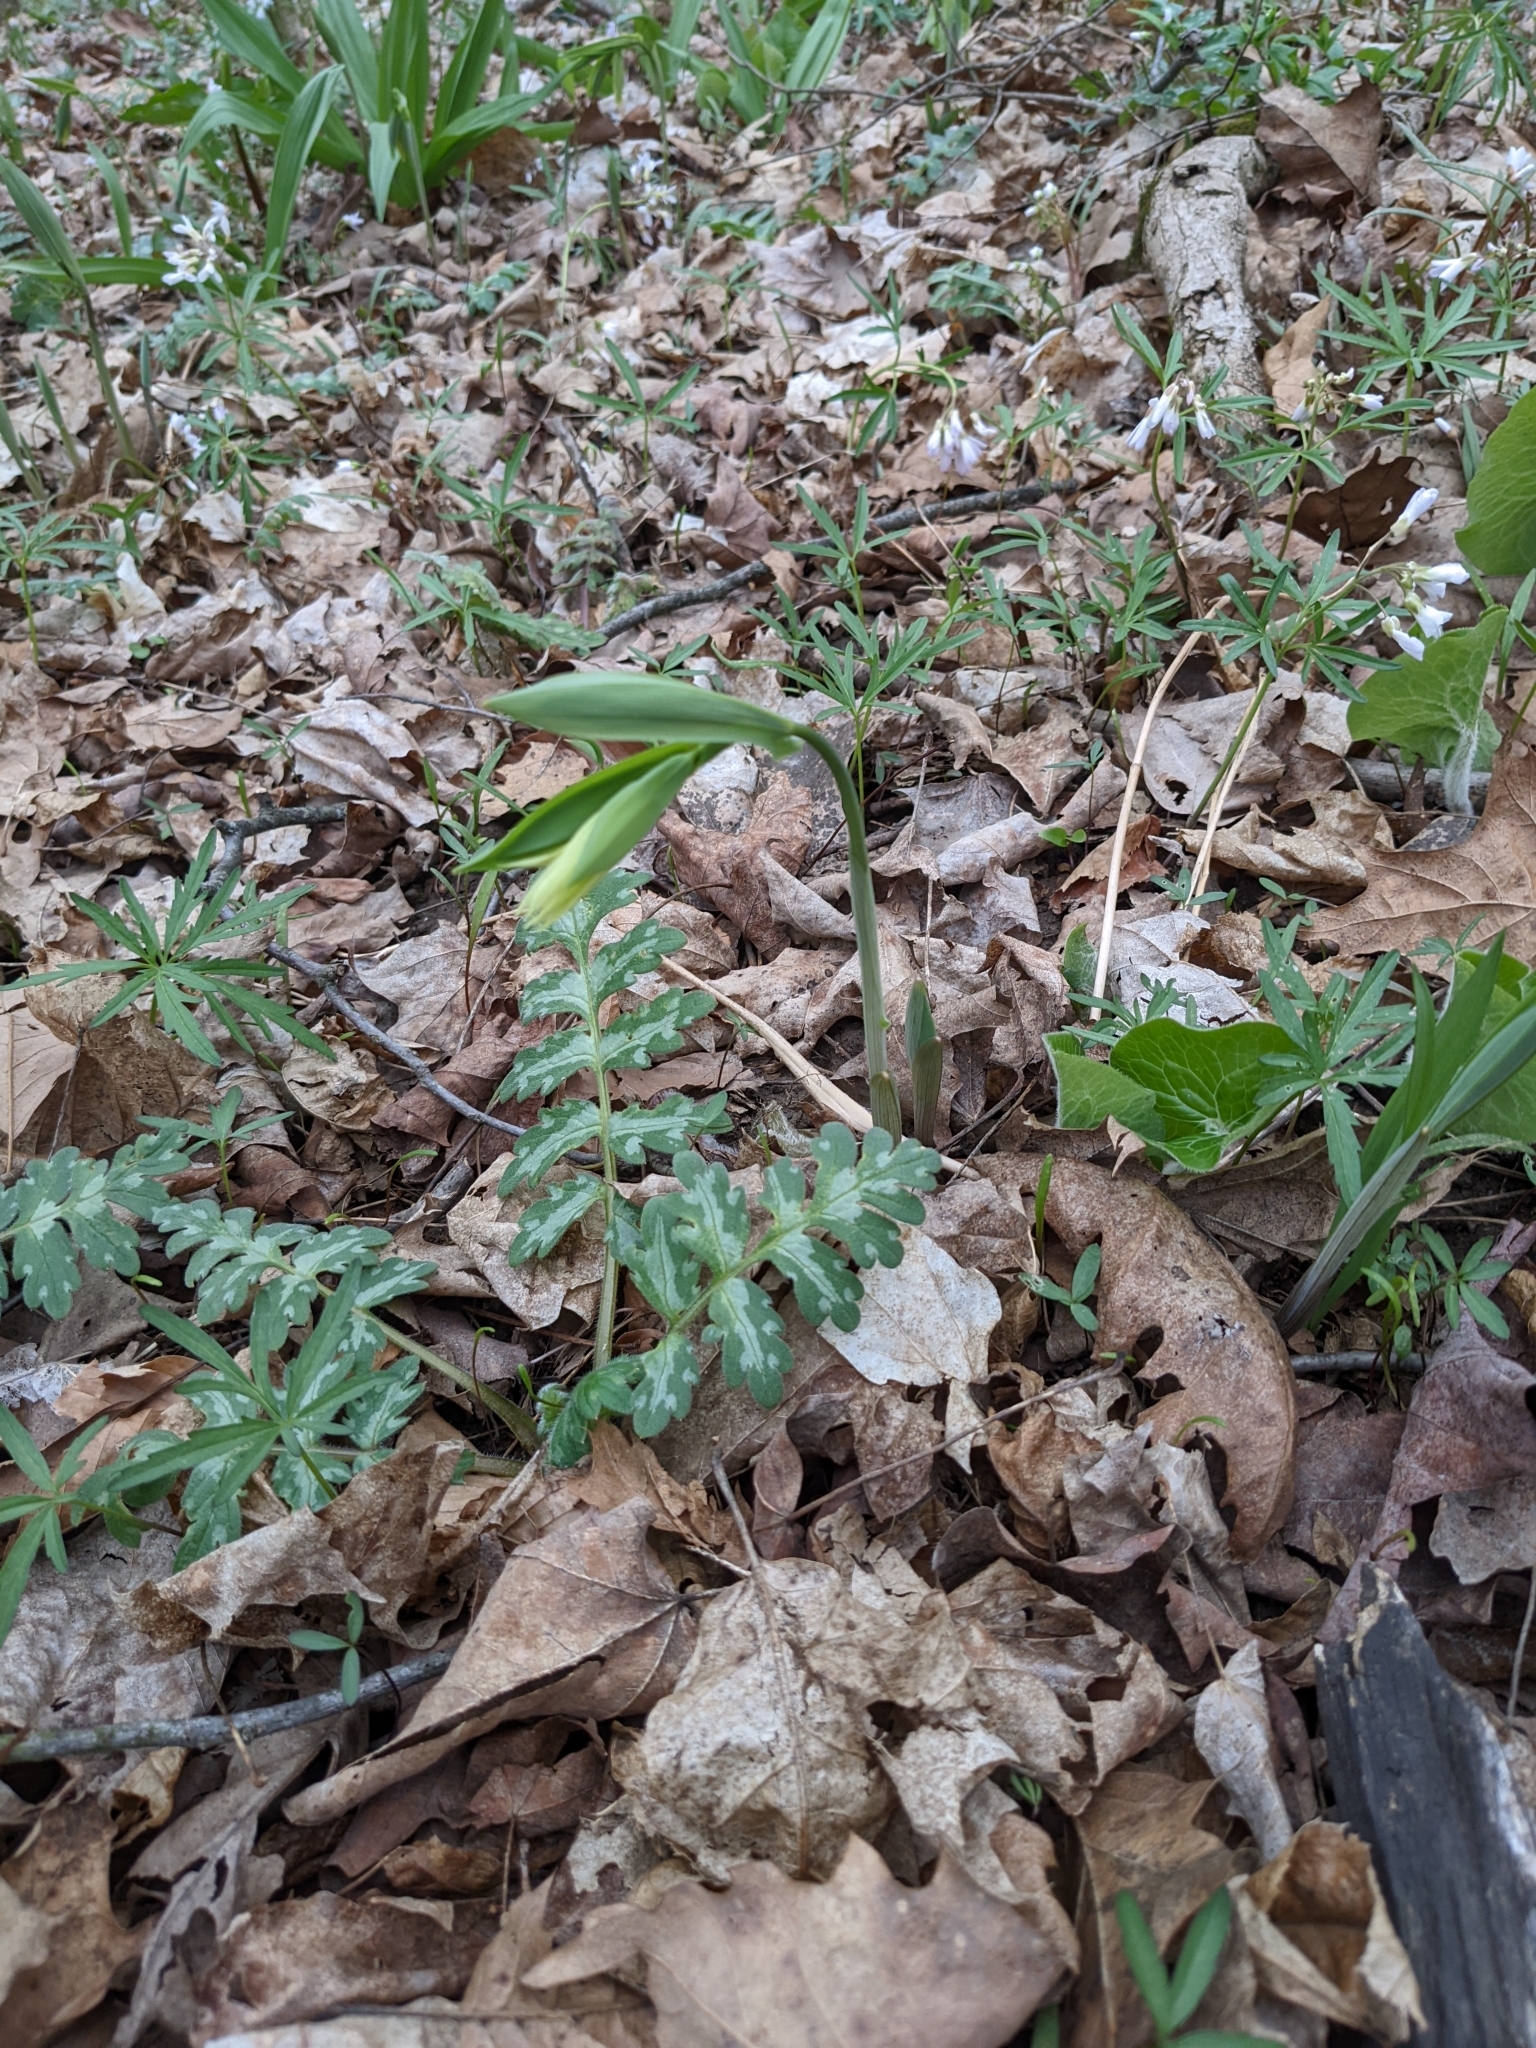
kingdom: Plantae
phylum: Tracheophyta
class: Liliopsida
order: Liliales
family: Colchicaceae
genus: Uvularia
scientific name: Uvularia grandiflora
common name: Bellwort
